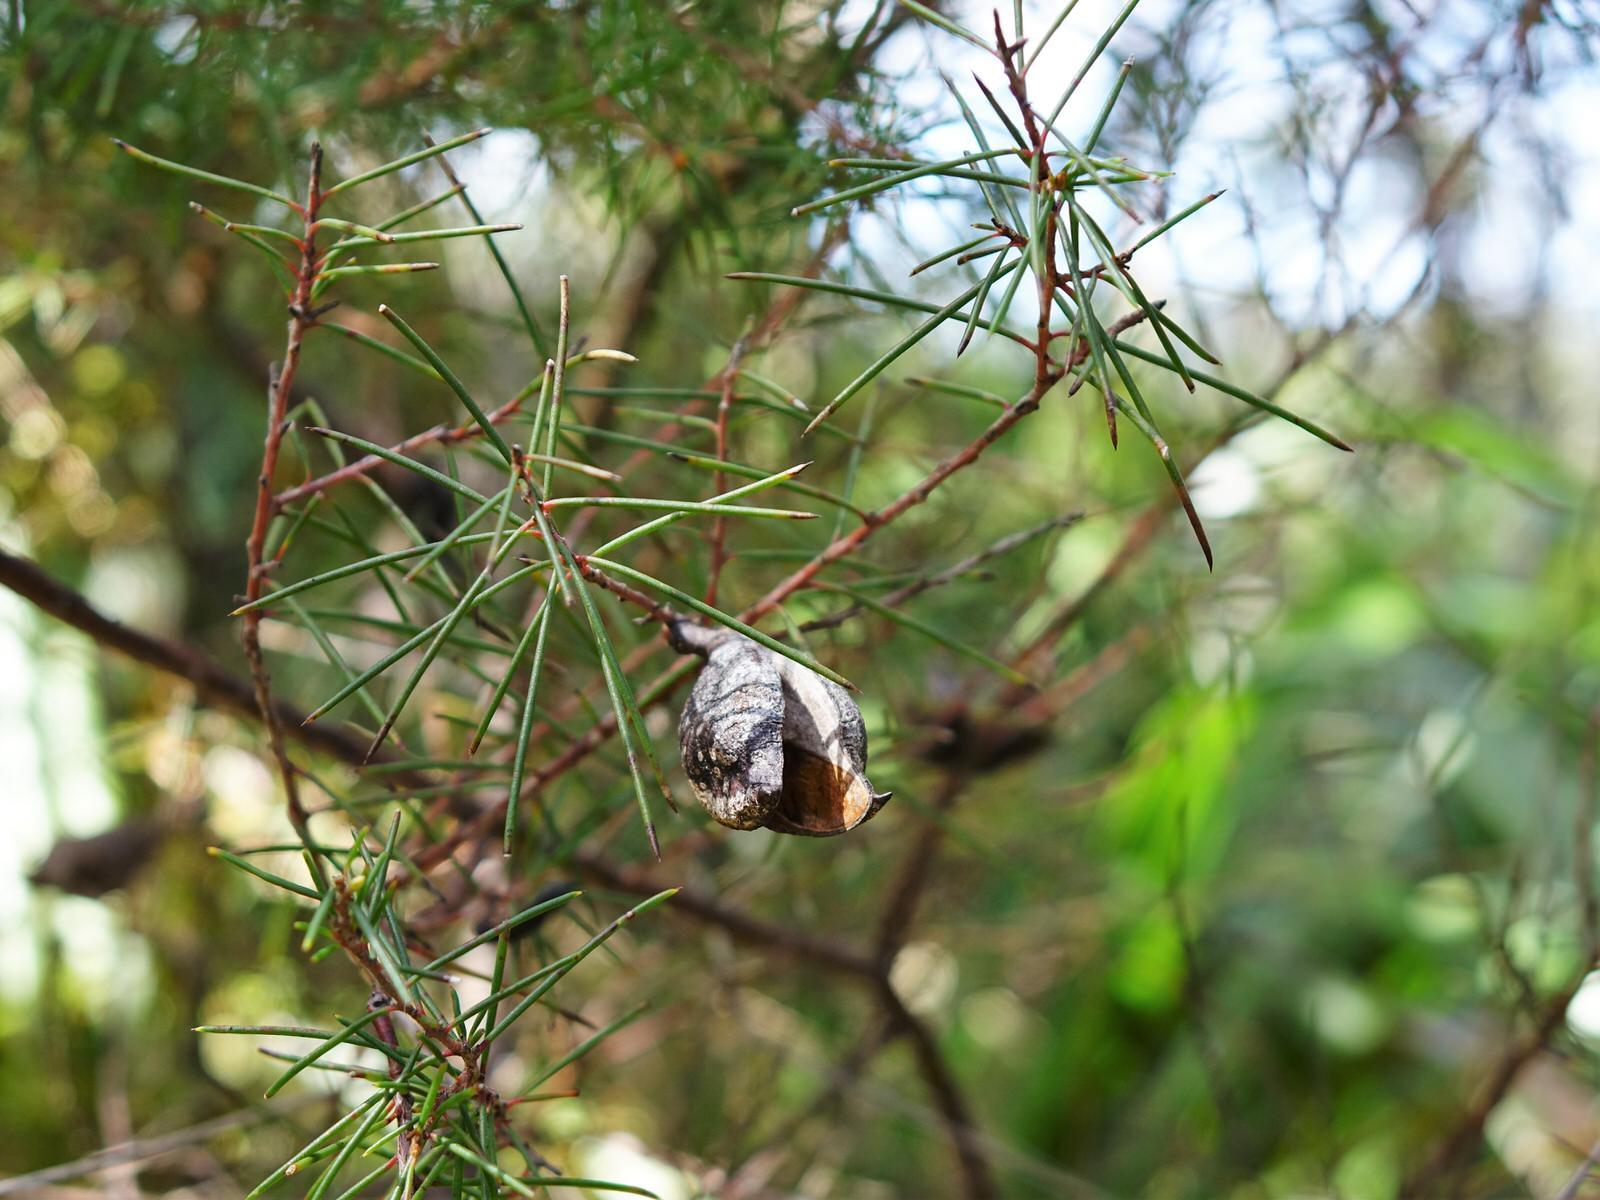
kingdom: Plantae
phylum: Tracheophyta
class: Magnoliopsida
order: Proteales
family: Proteaceae
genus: Hakea
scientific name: Hakea sericea
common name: Needle bush
